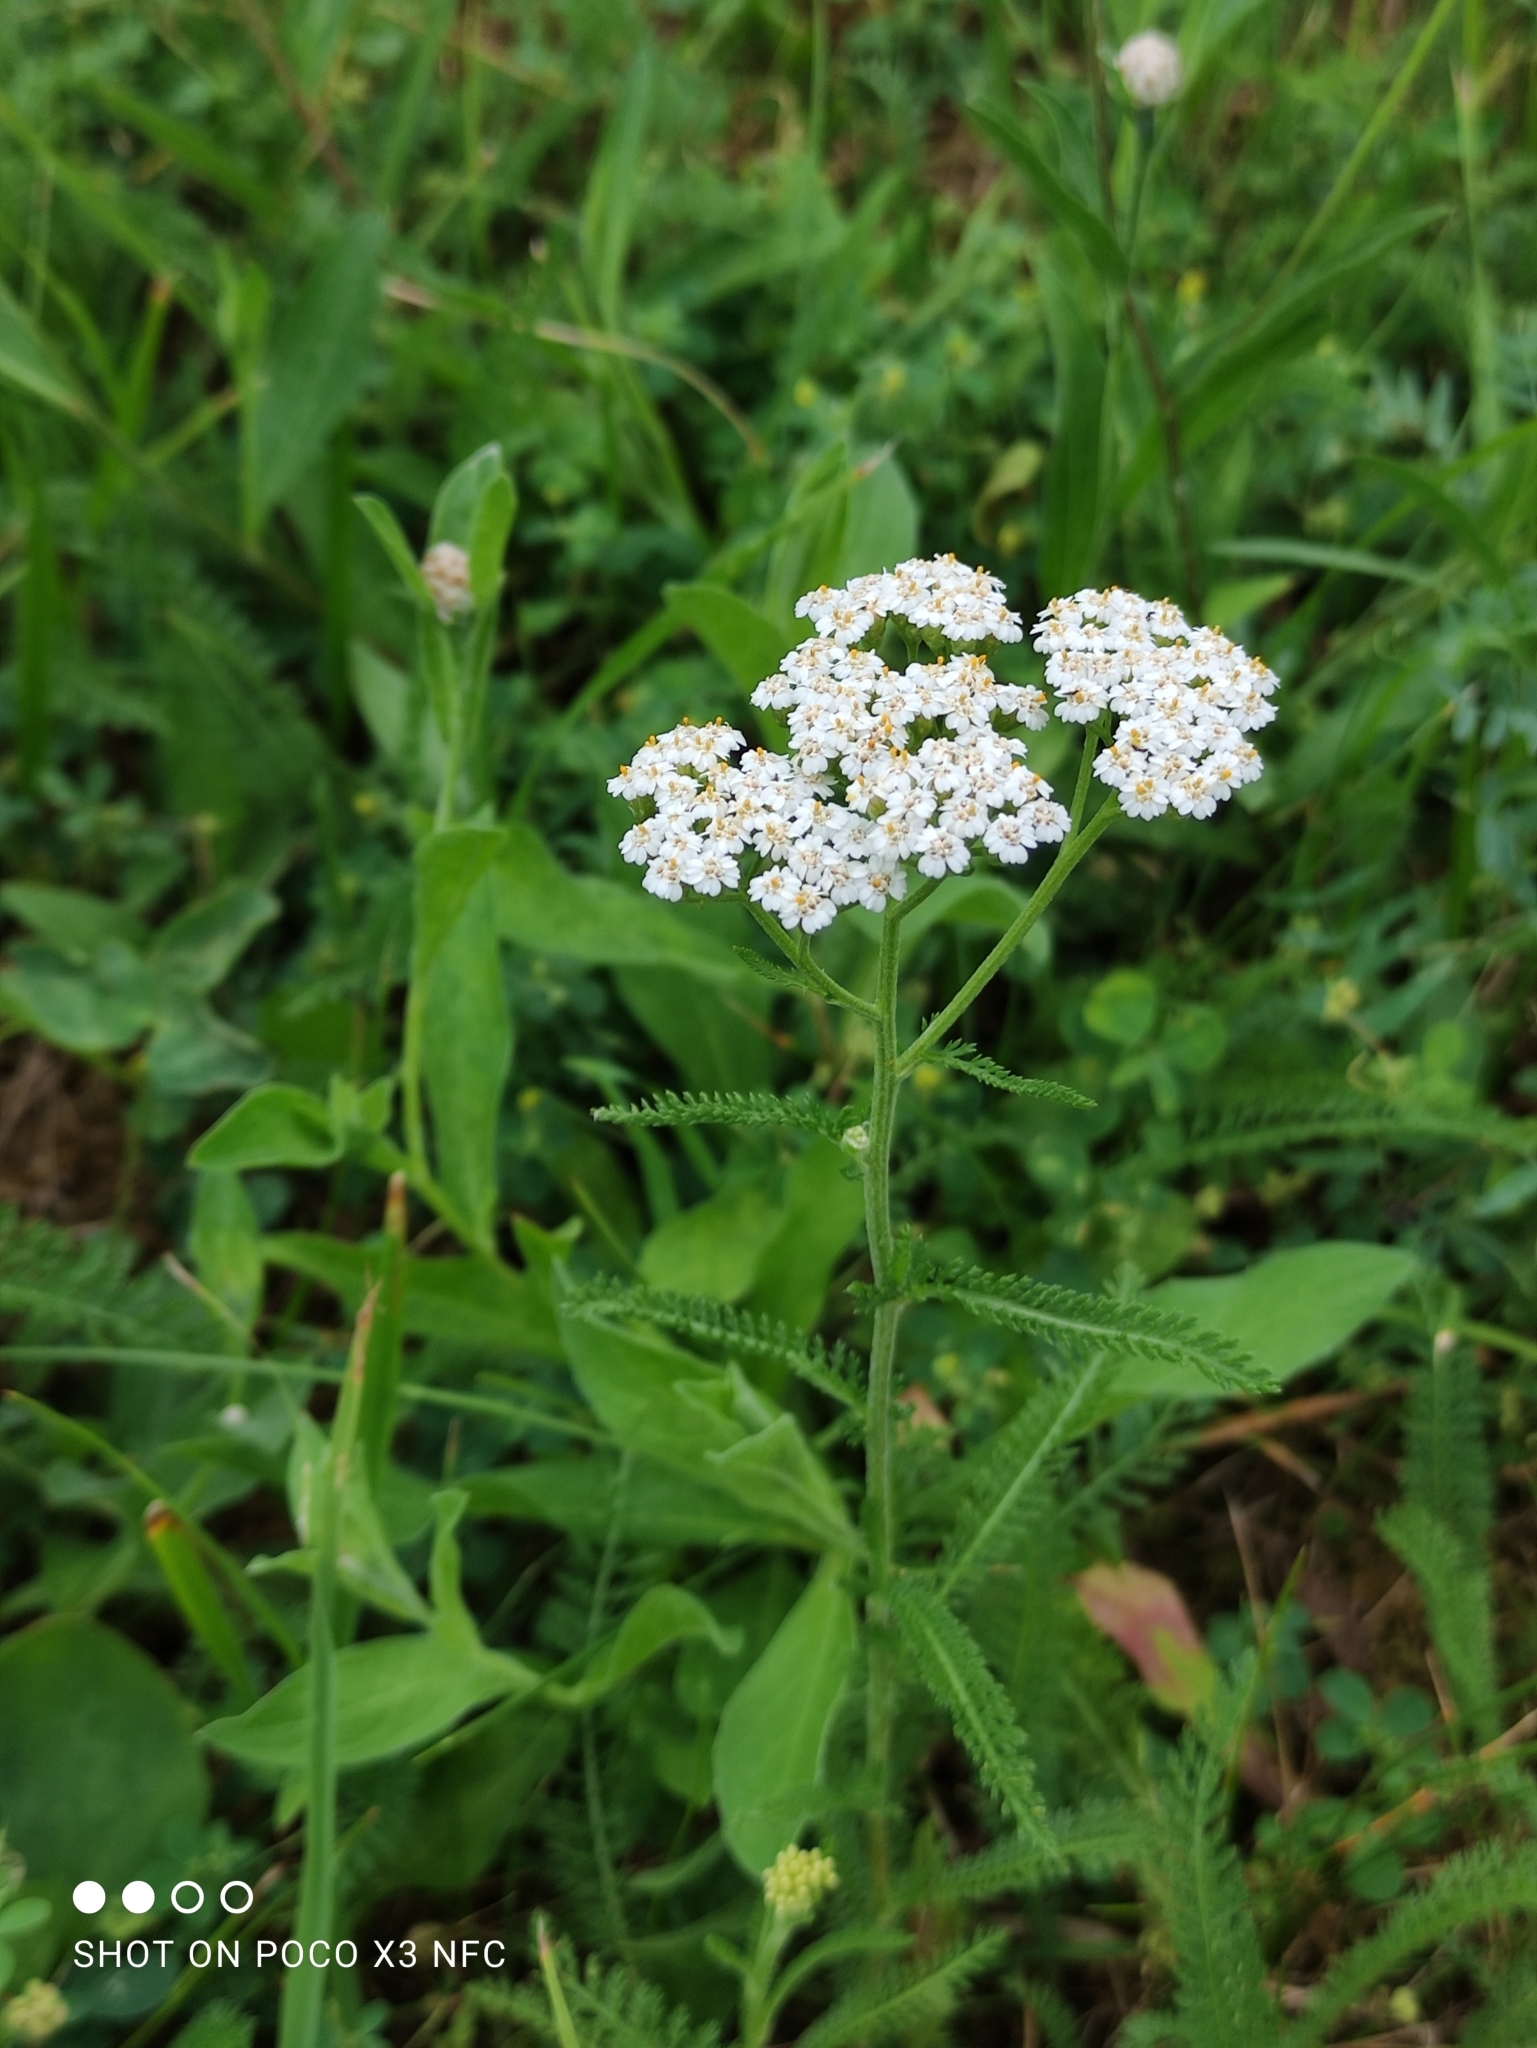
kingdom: Plantae
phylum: Tracheophyta
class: Magnoliopsida
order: Asterales
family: Asteraceae
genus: Achillea
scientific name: Achillea millefolium
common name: Yarrow
